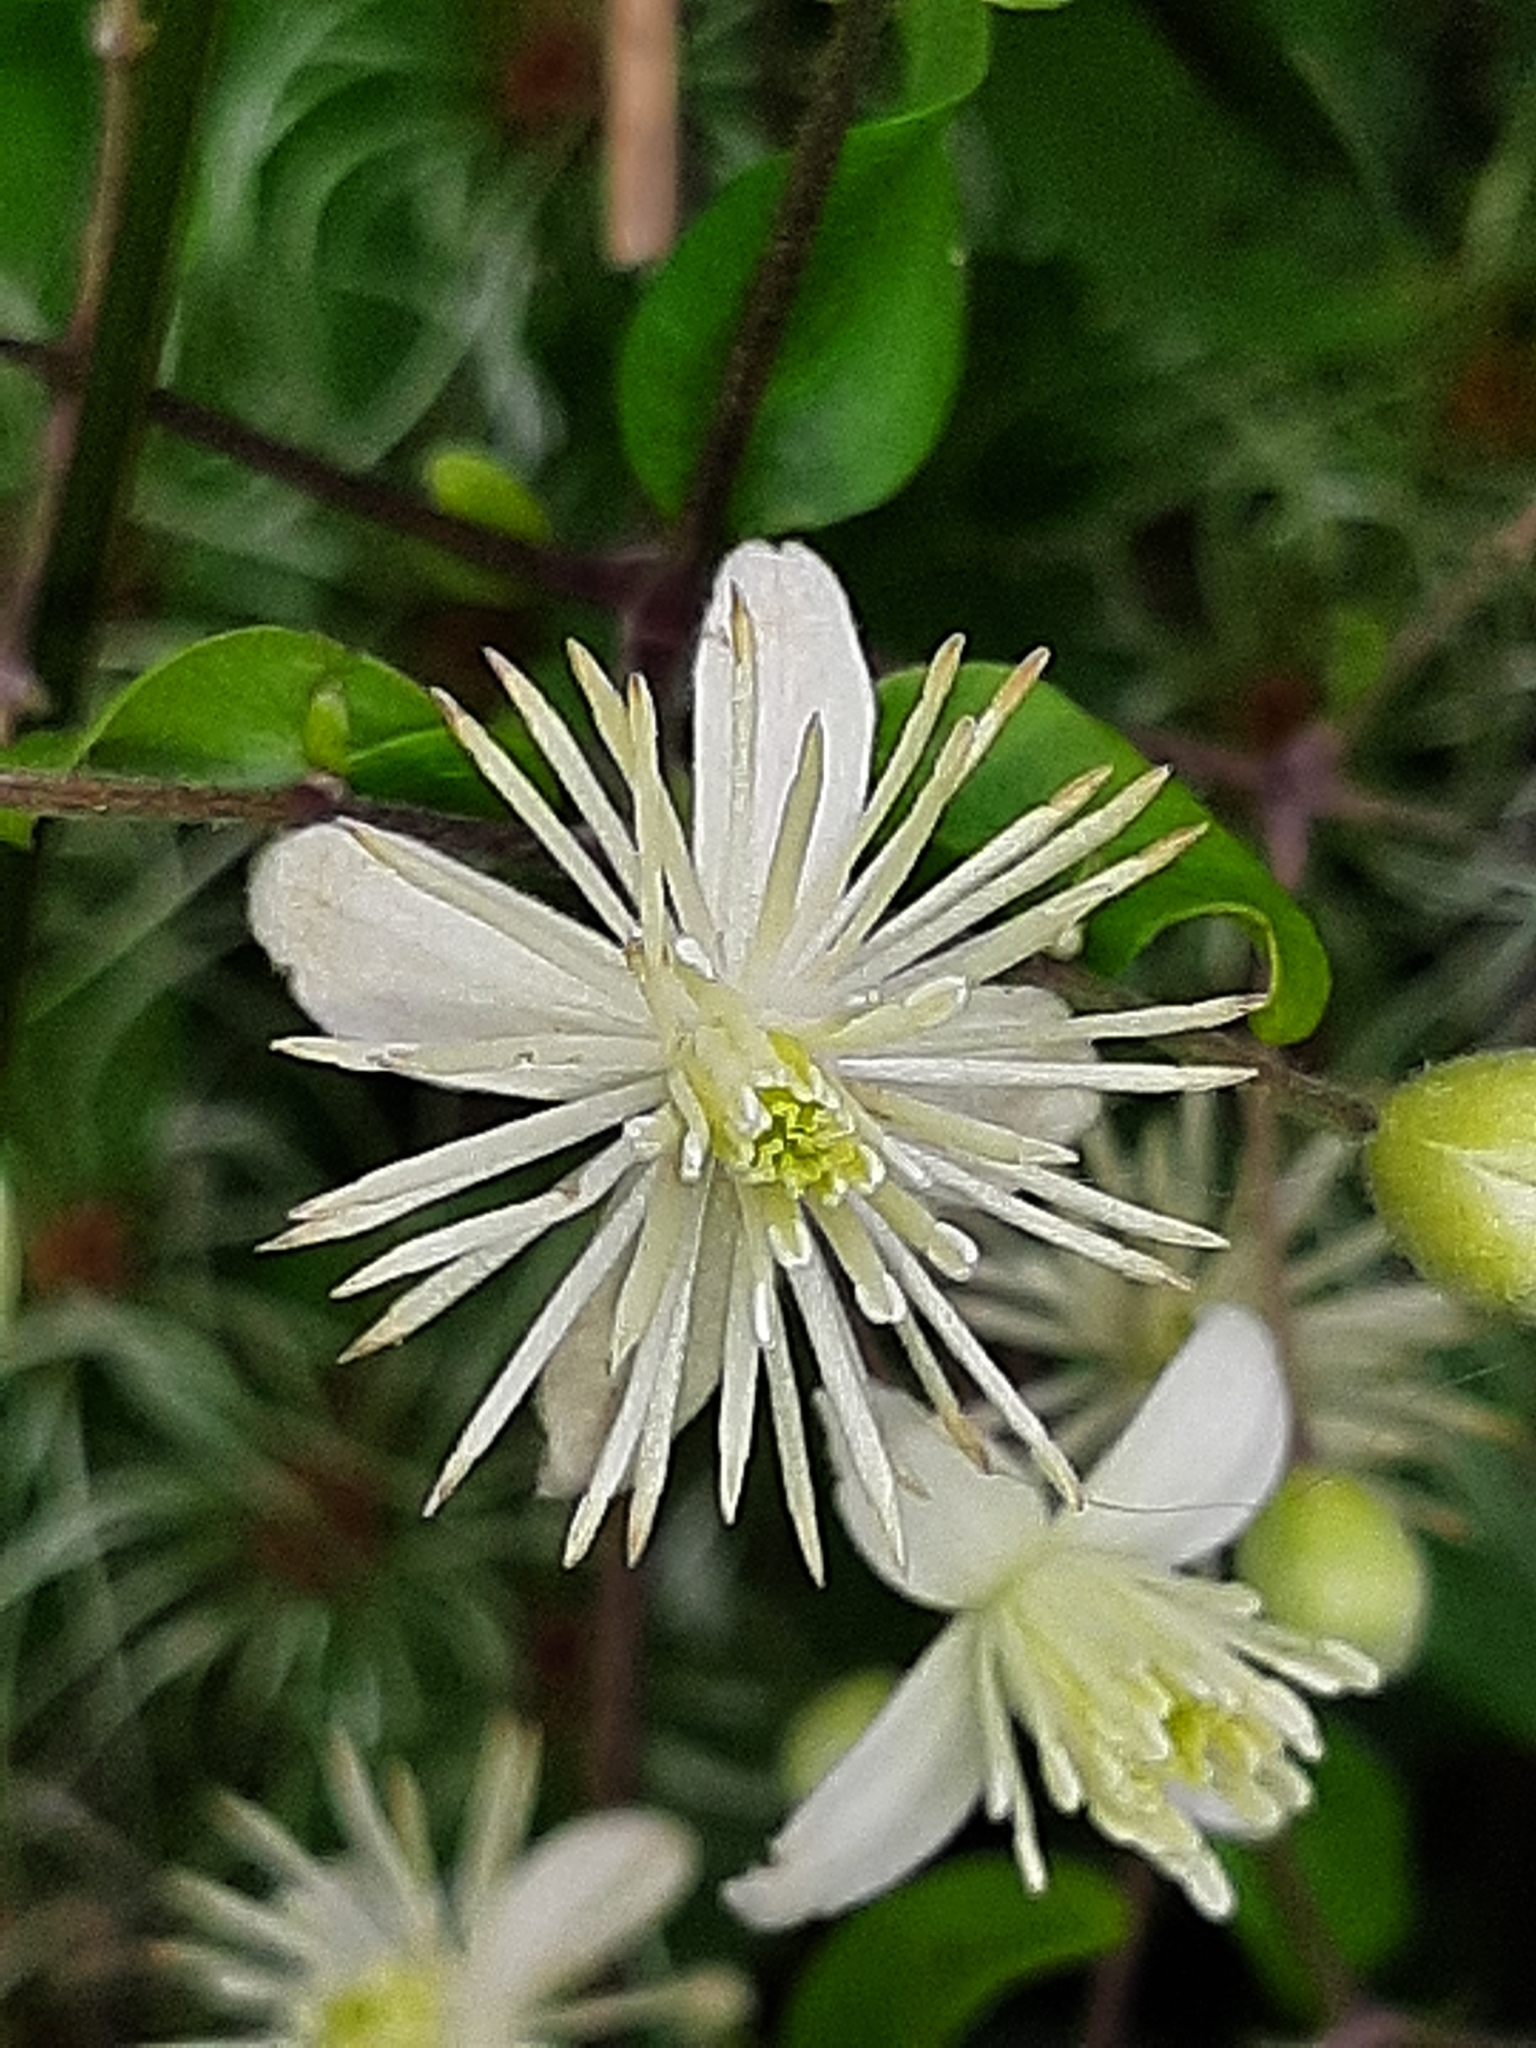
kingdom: Plantae
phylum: Tracheophyta
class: Magnoliopsida
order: Ranunculales
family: Ranunculaceae
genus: Clematis
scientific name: Clematis vitalba
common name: Evergreen clematis
